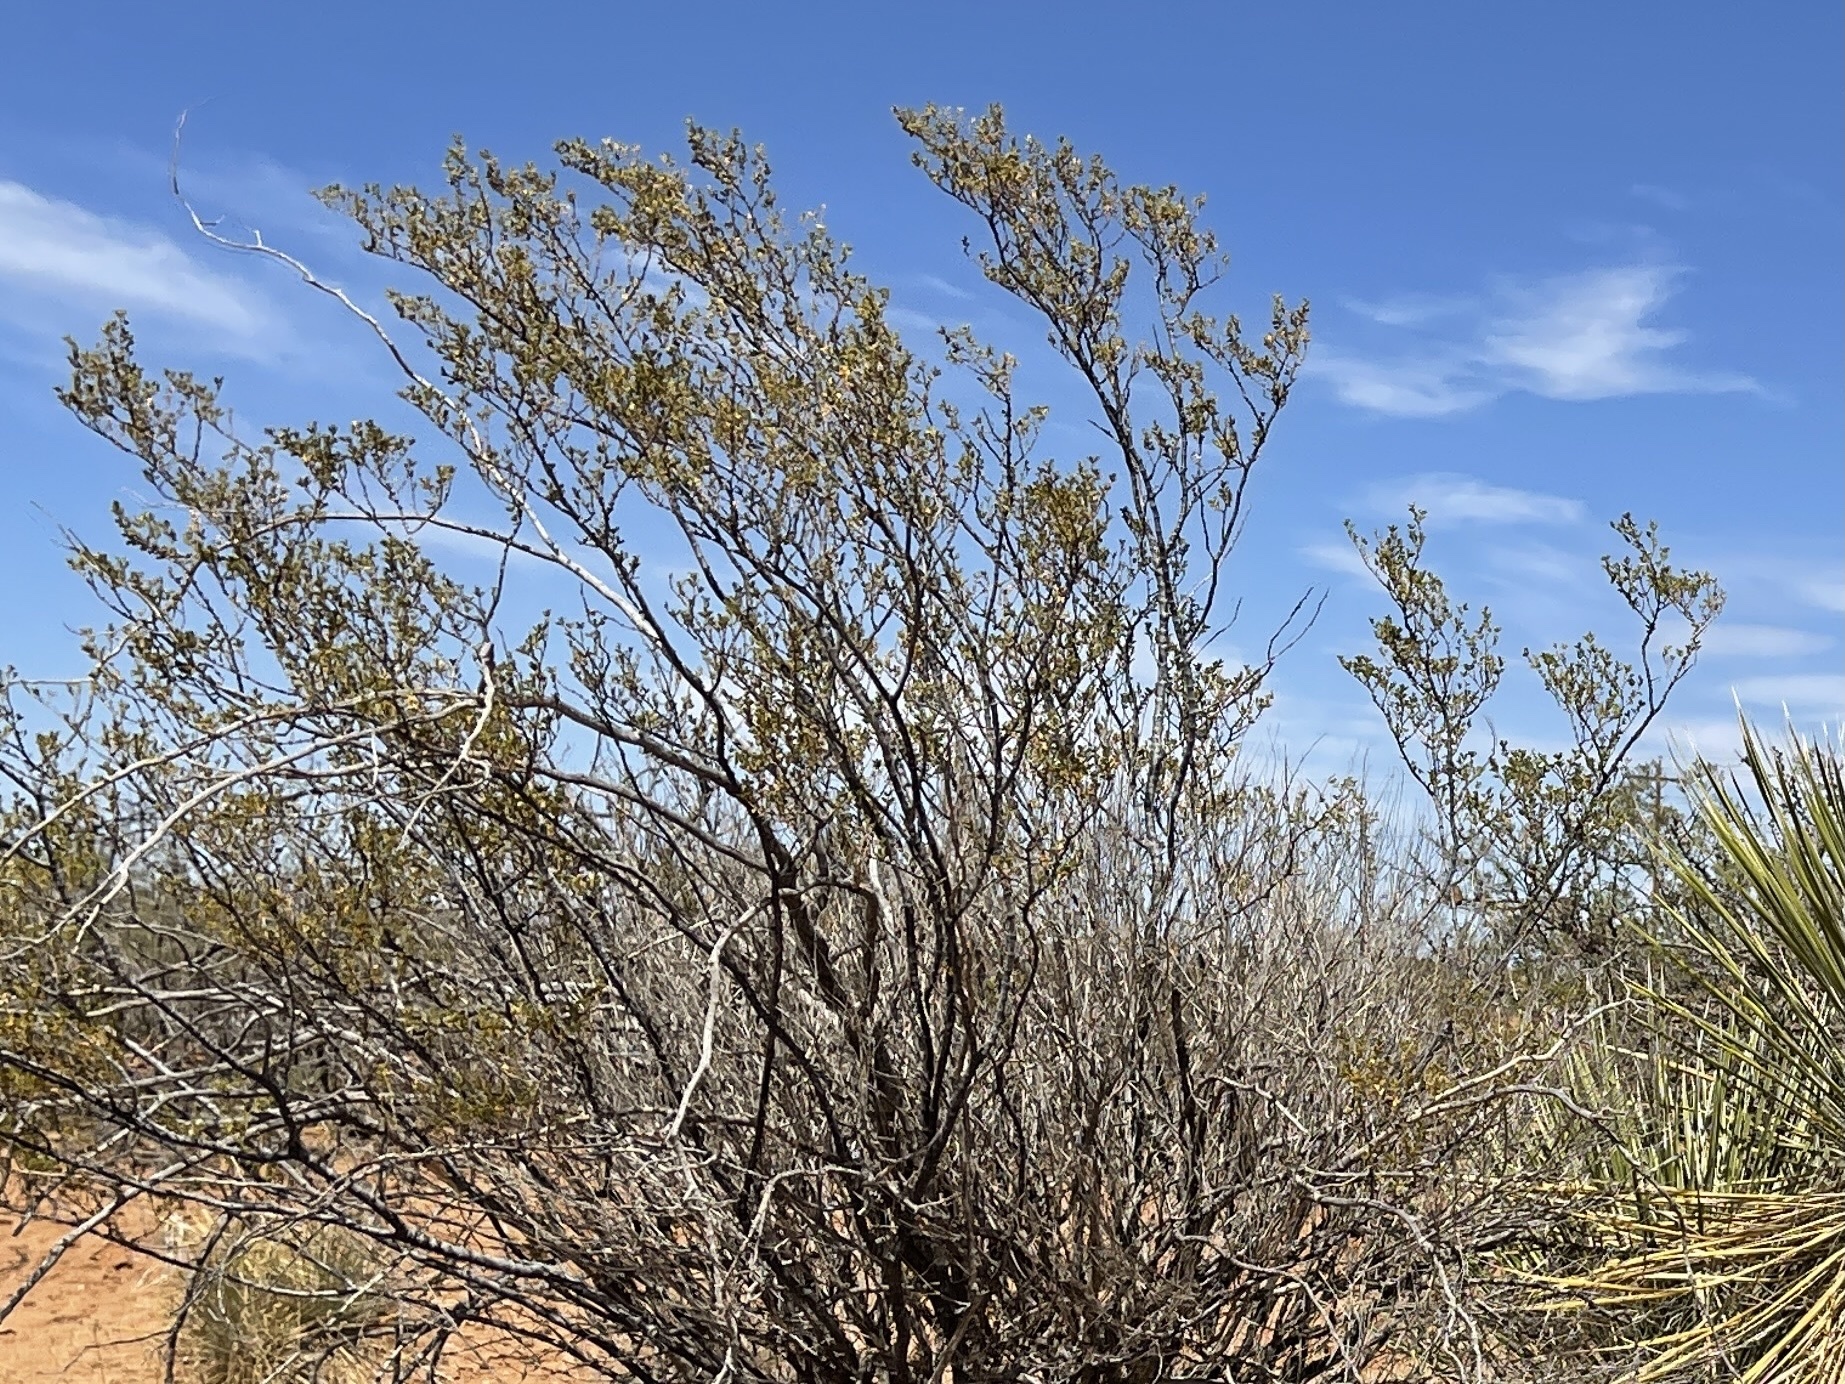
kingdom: Plantae
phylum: Tracheophyta
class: Magnoliopsida
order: Zygophyllales
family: Zygophyllaceae
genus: Larrea
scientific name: Larrea tridentata
